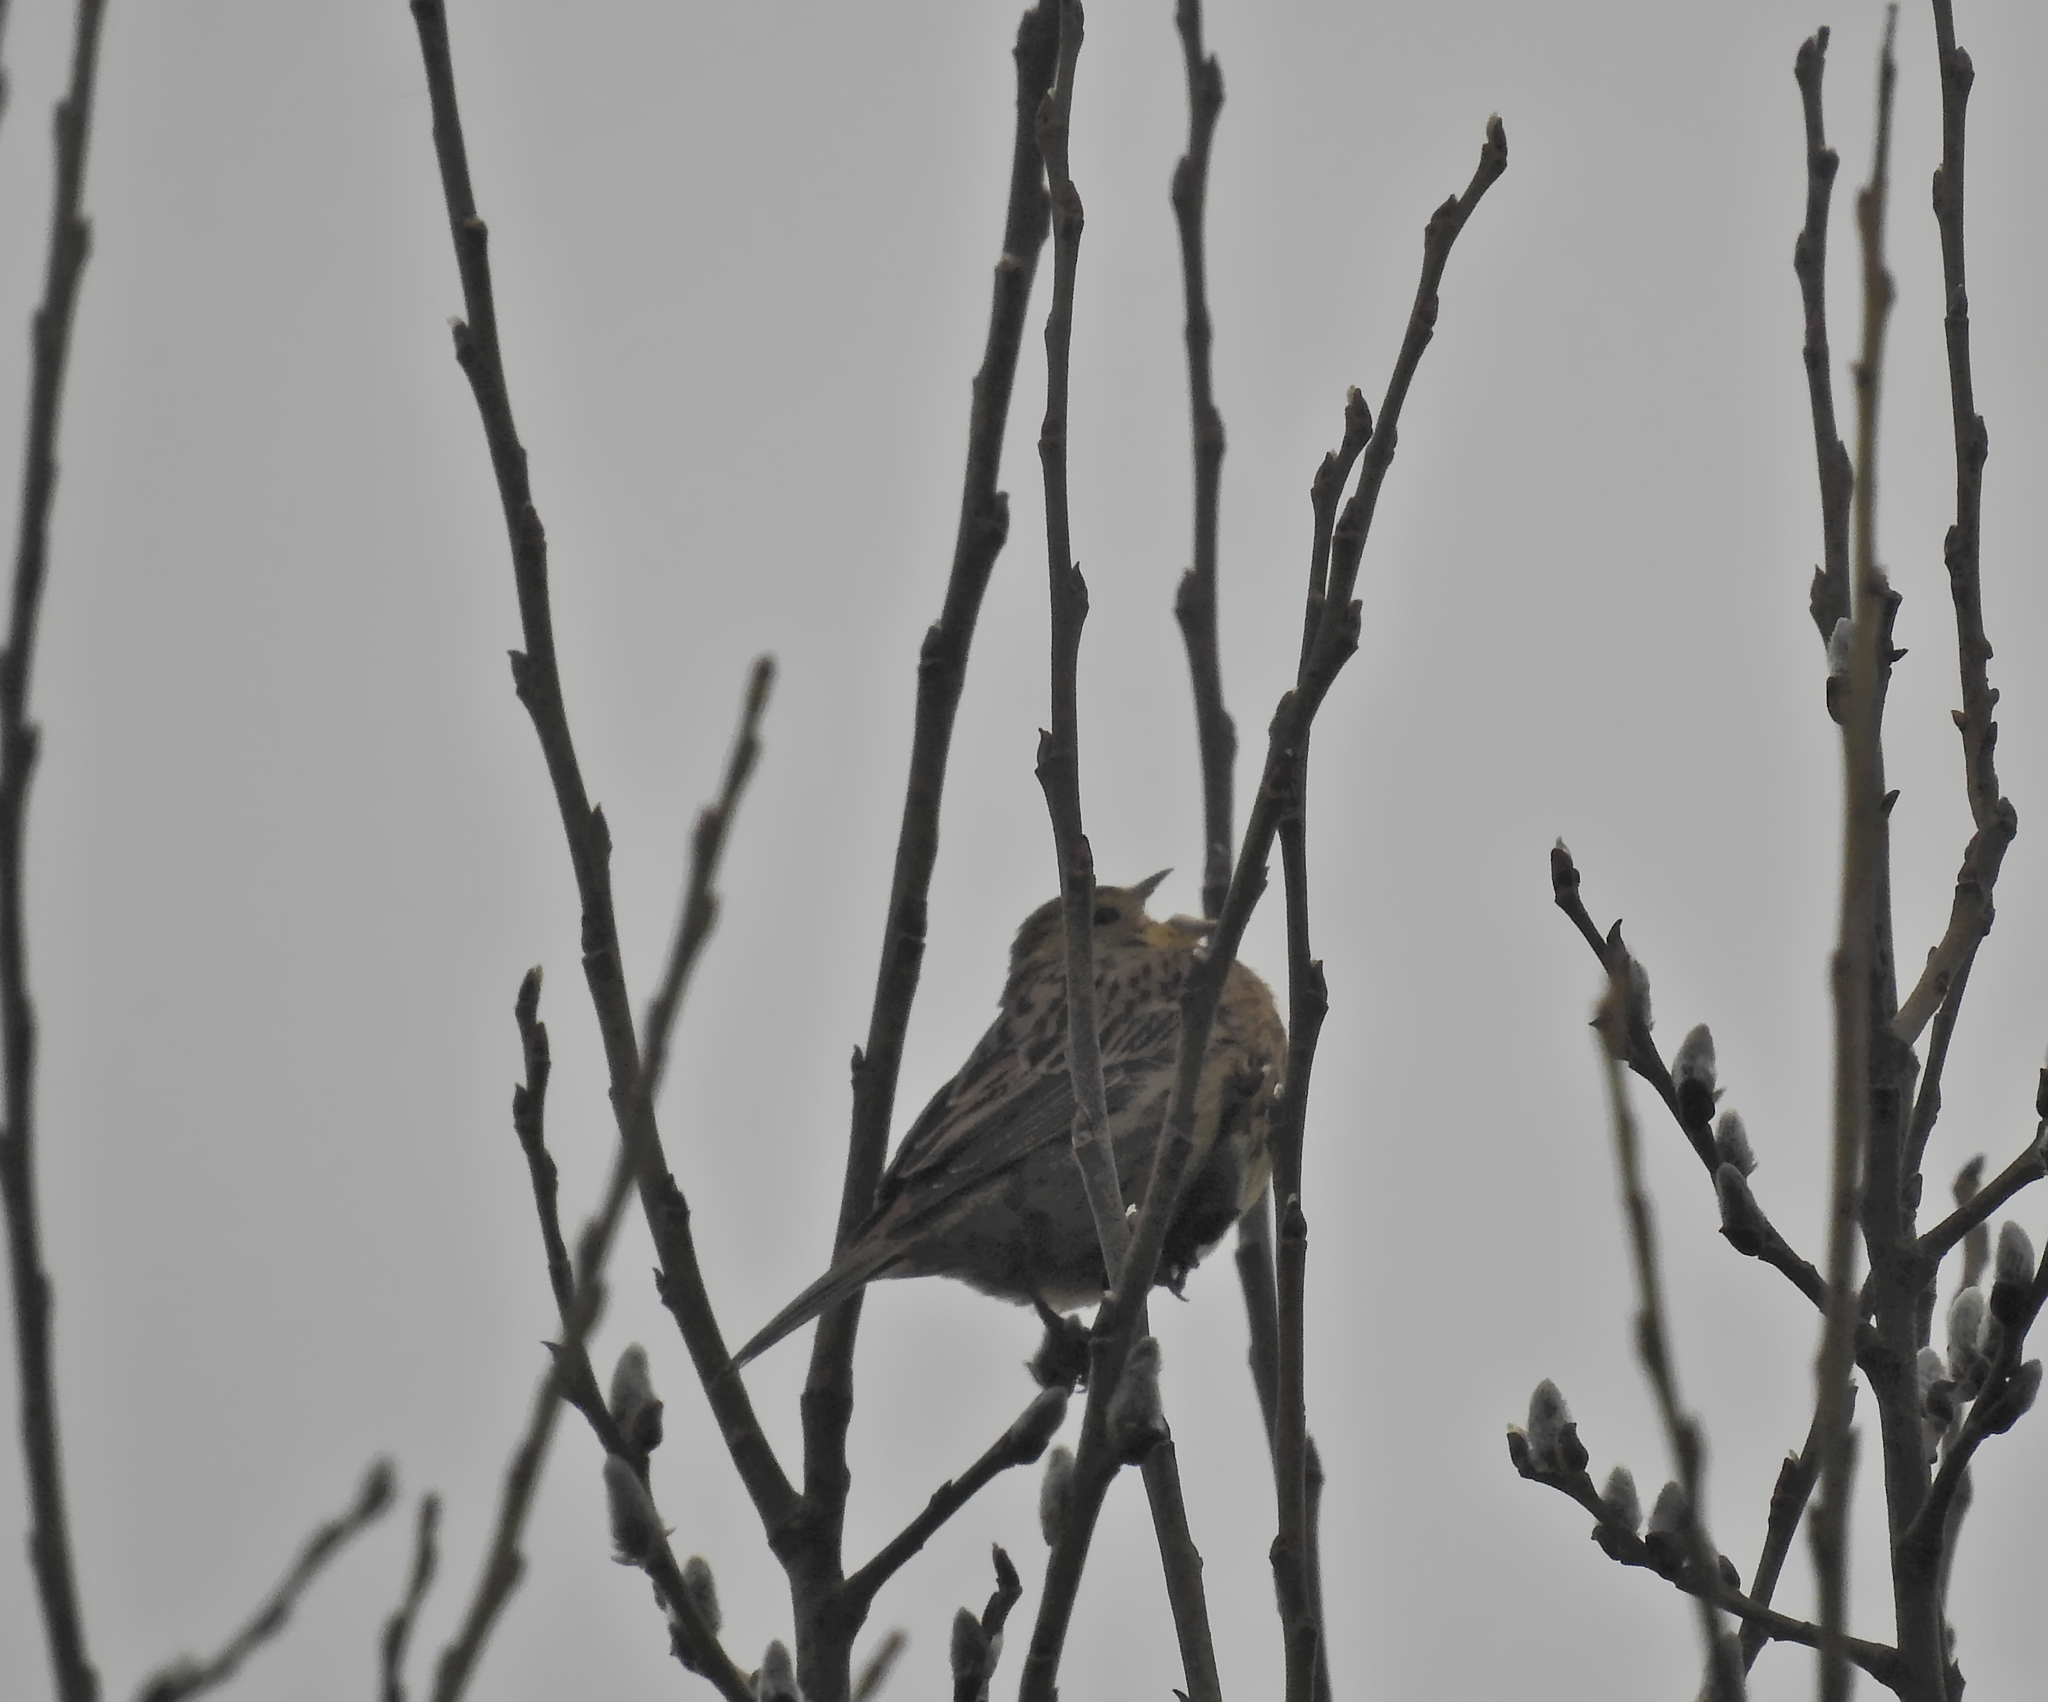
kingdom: Animalia
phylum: Chordata
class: Aves
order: Passeriformes
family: Emberizidae
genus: Emberiza
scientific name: Emberiza citrinella
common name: Yellowhammer
